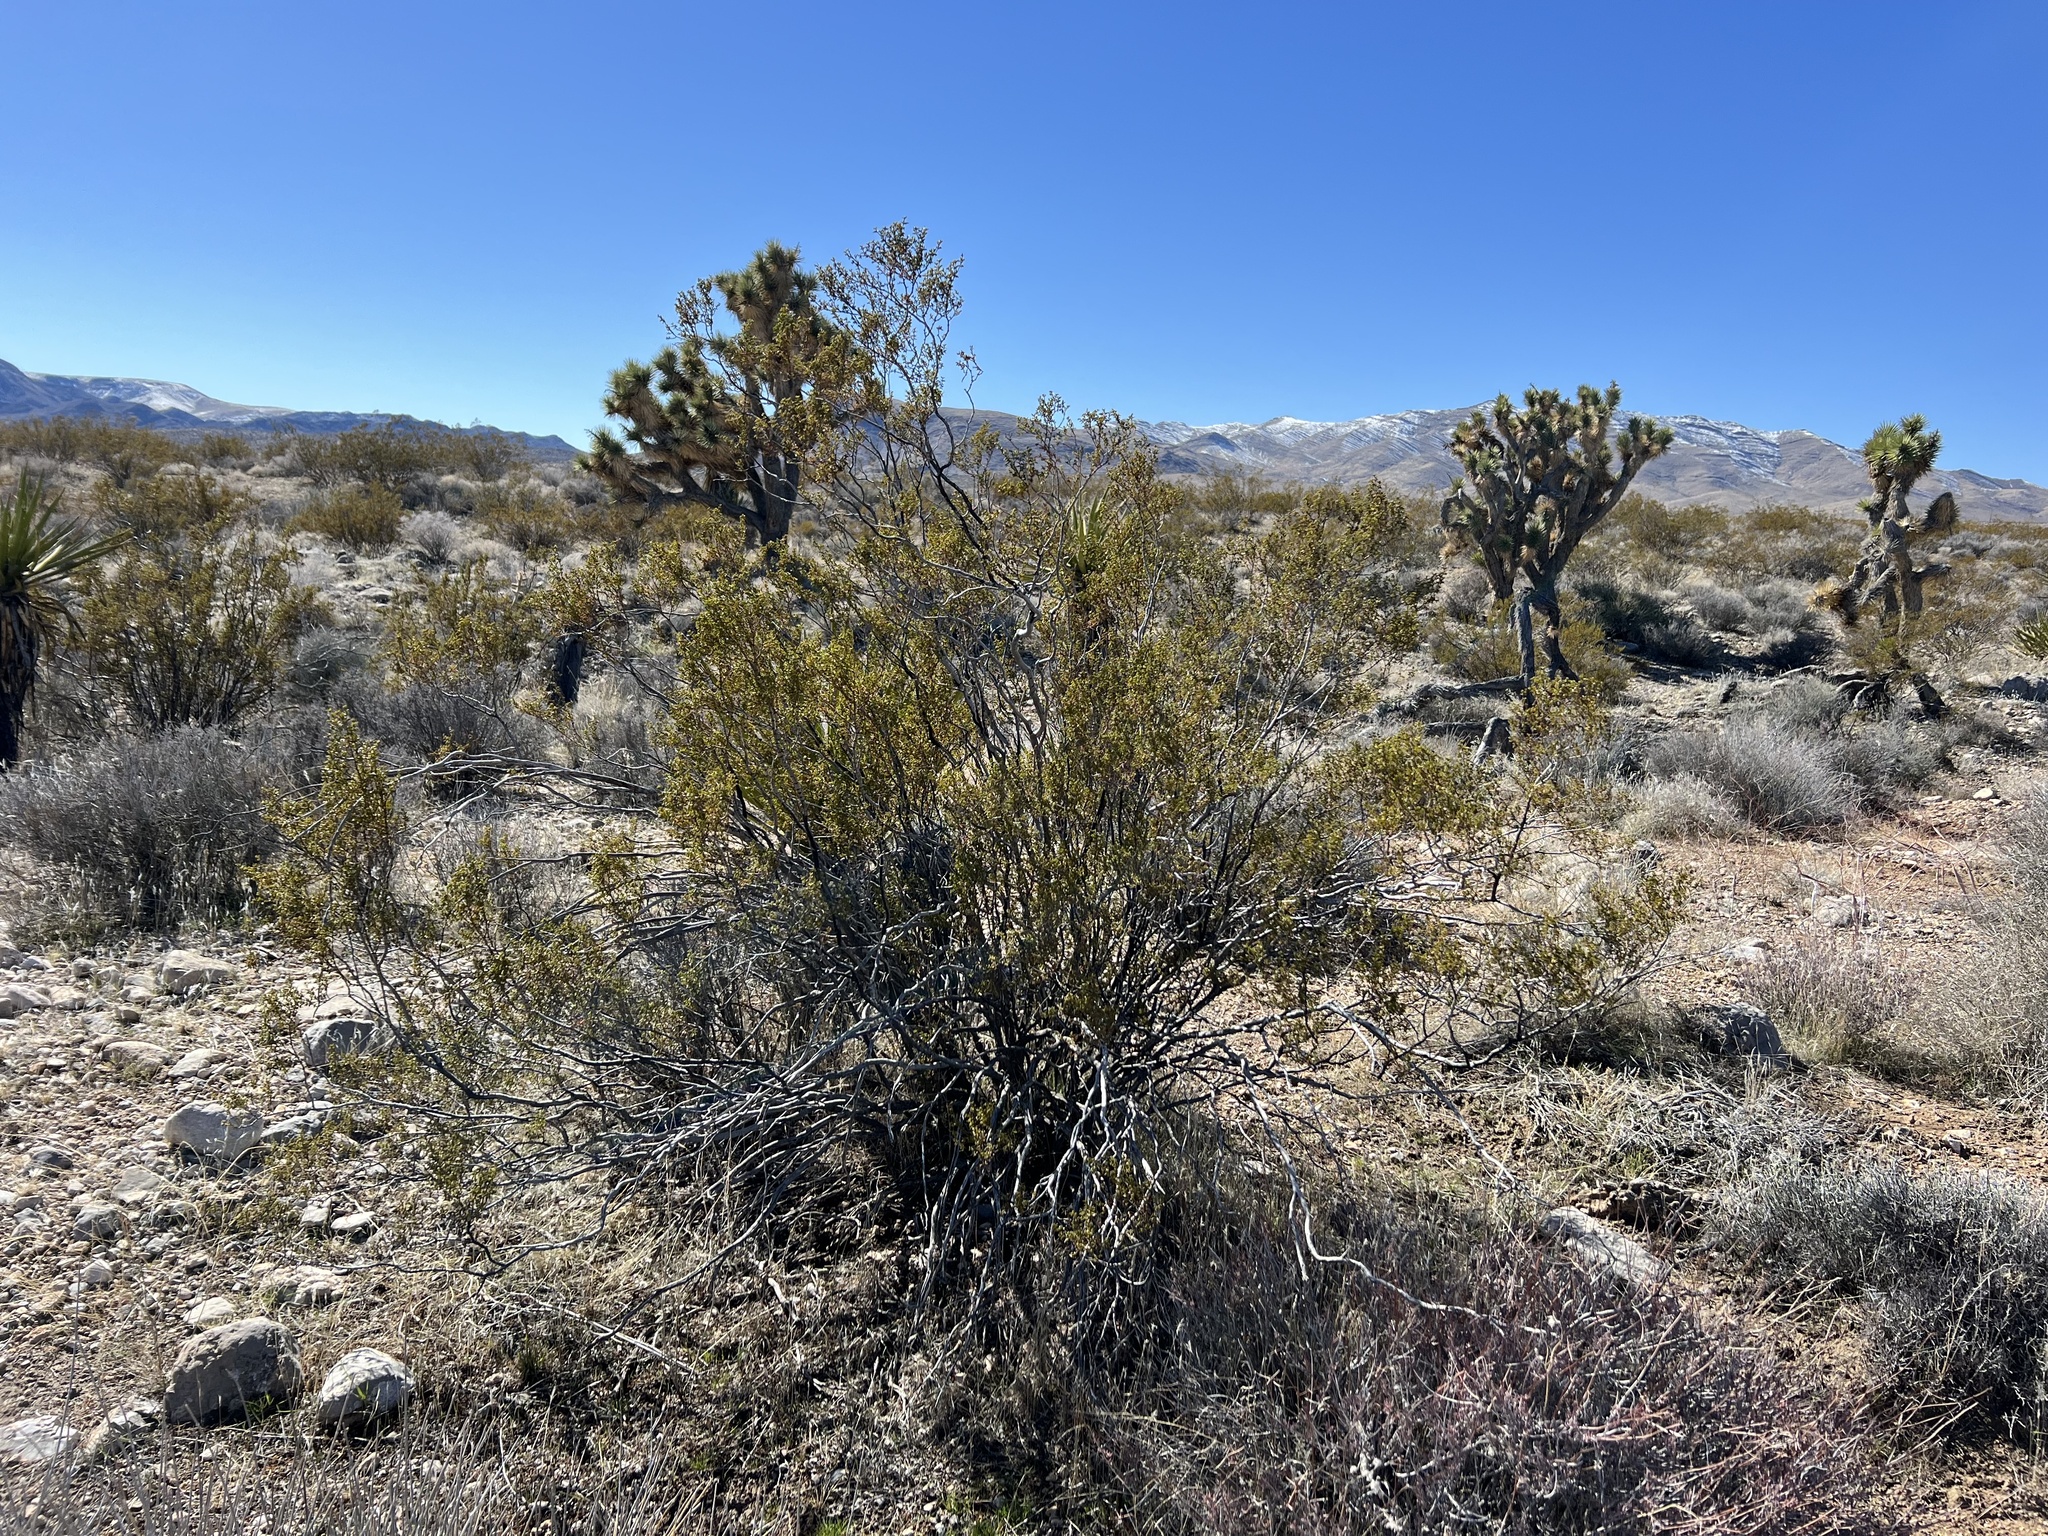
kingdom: Plantae
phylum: Tracheophyta
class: Magnoliopsida
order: Zygophyllales
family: Zygophyllaceae
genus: Larrea
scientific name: Larrea tridentata
